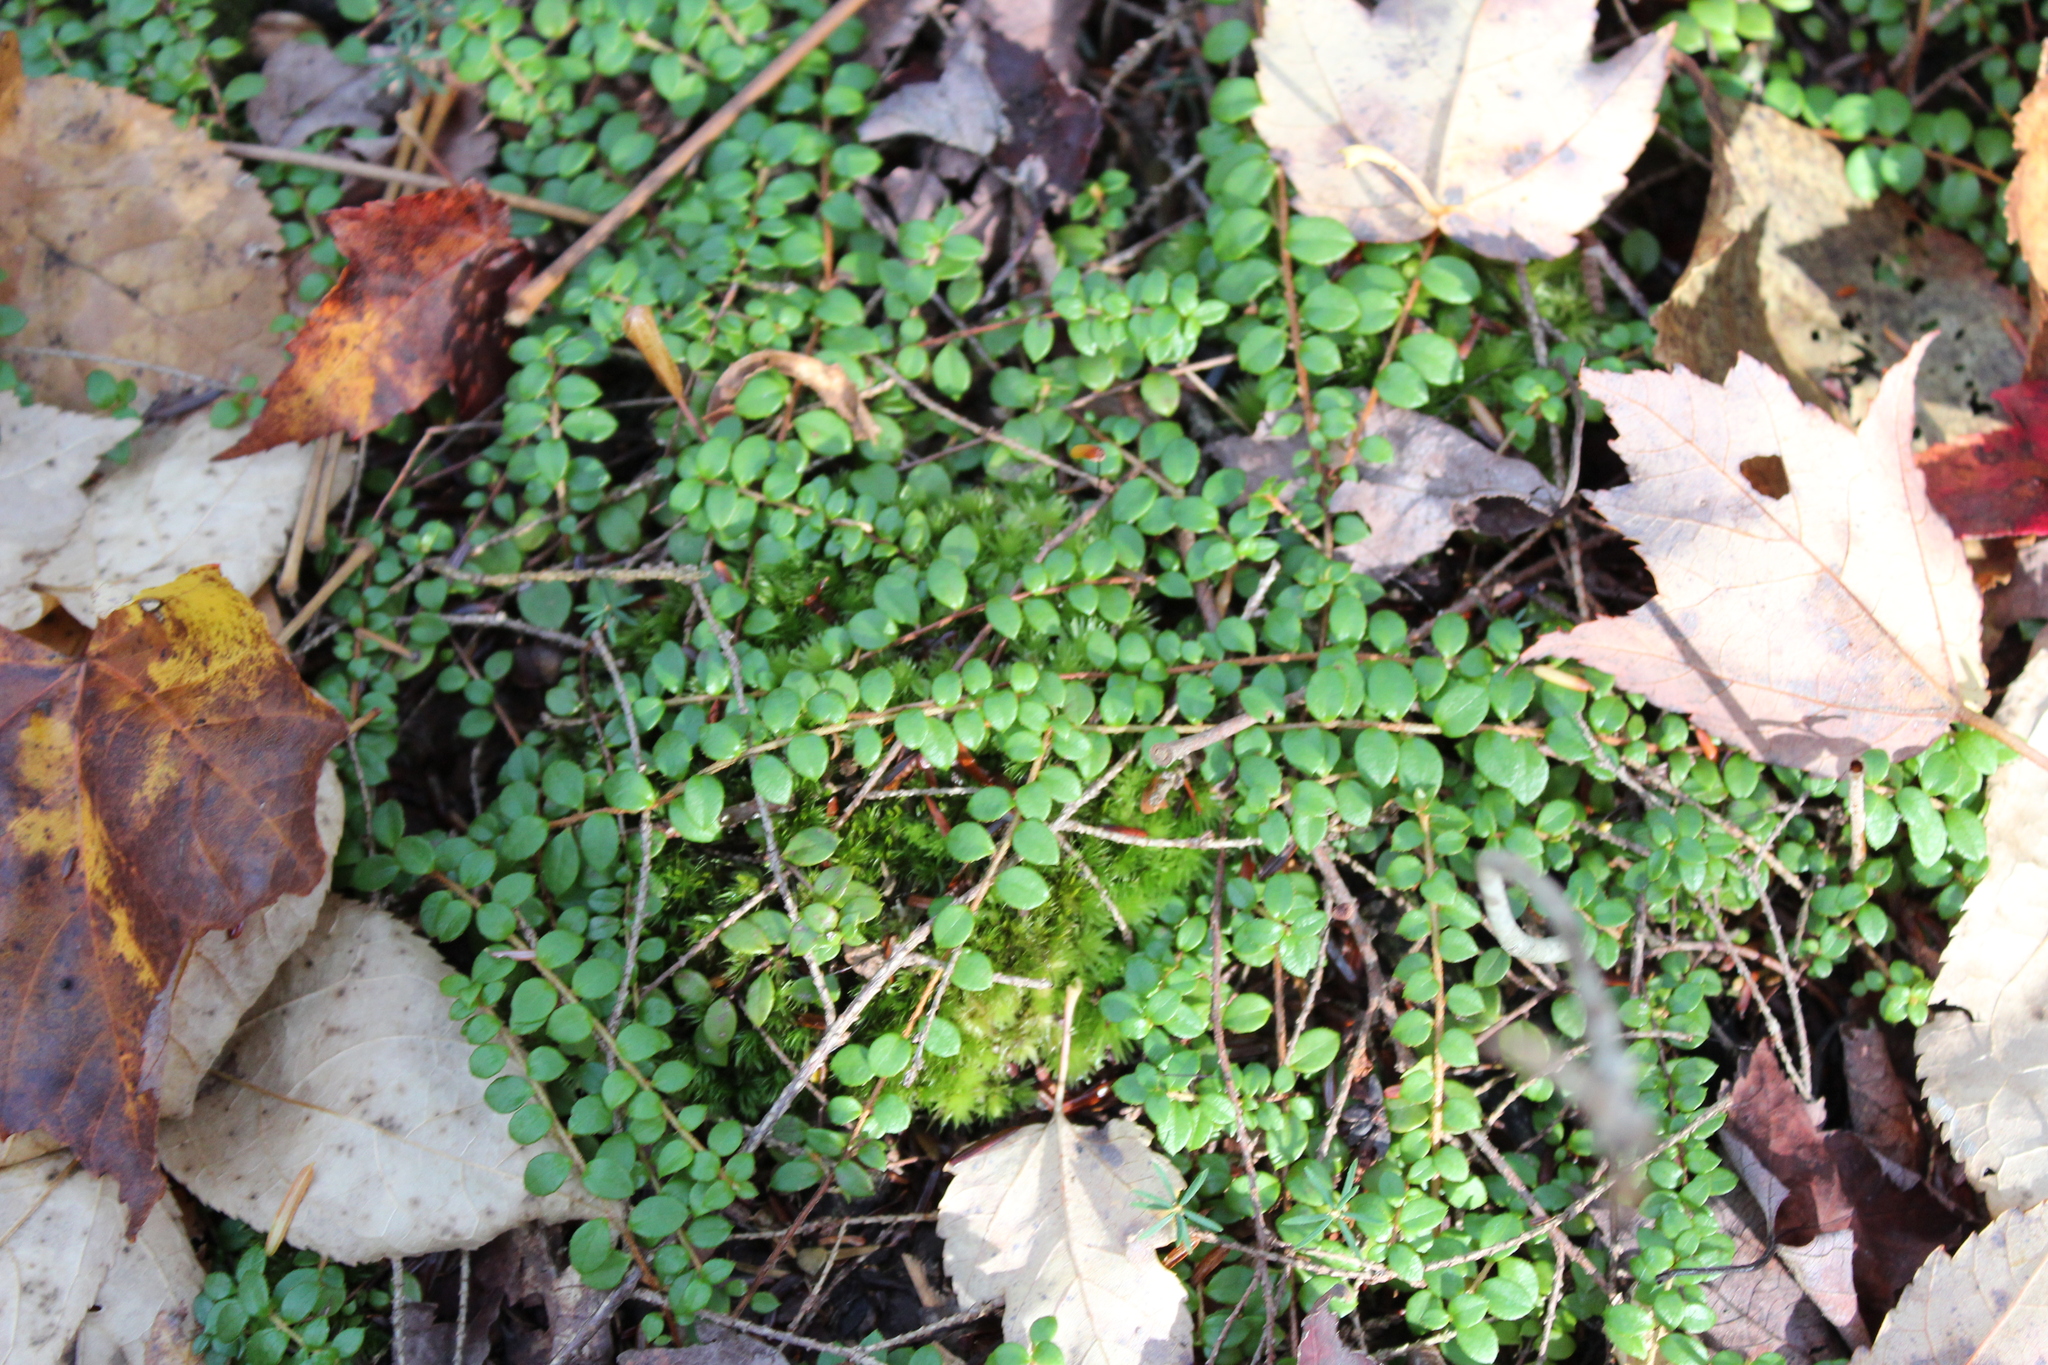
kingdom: Plantae
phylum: Tracheophyta
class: Magnoliopsida
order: Ericales
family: Ericaceae
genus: Gaultheria
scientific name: Gaultheria hispidula
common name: Cancer wintergreen
